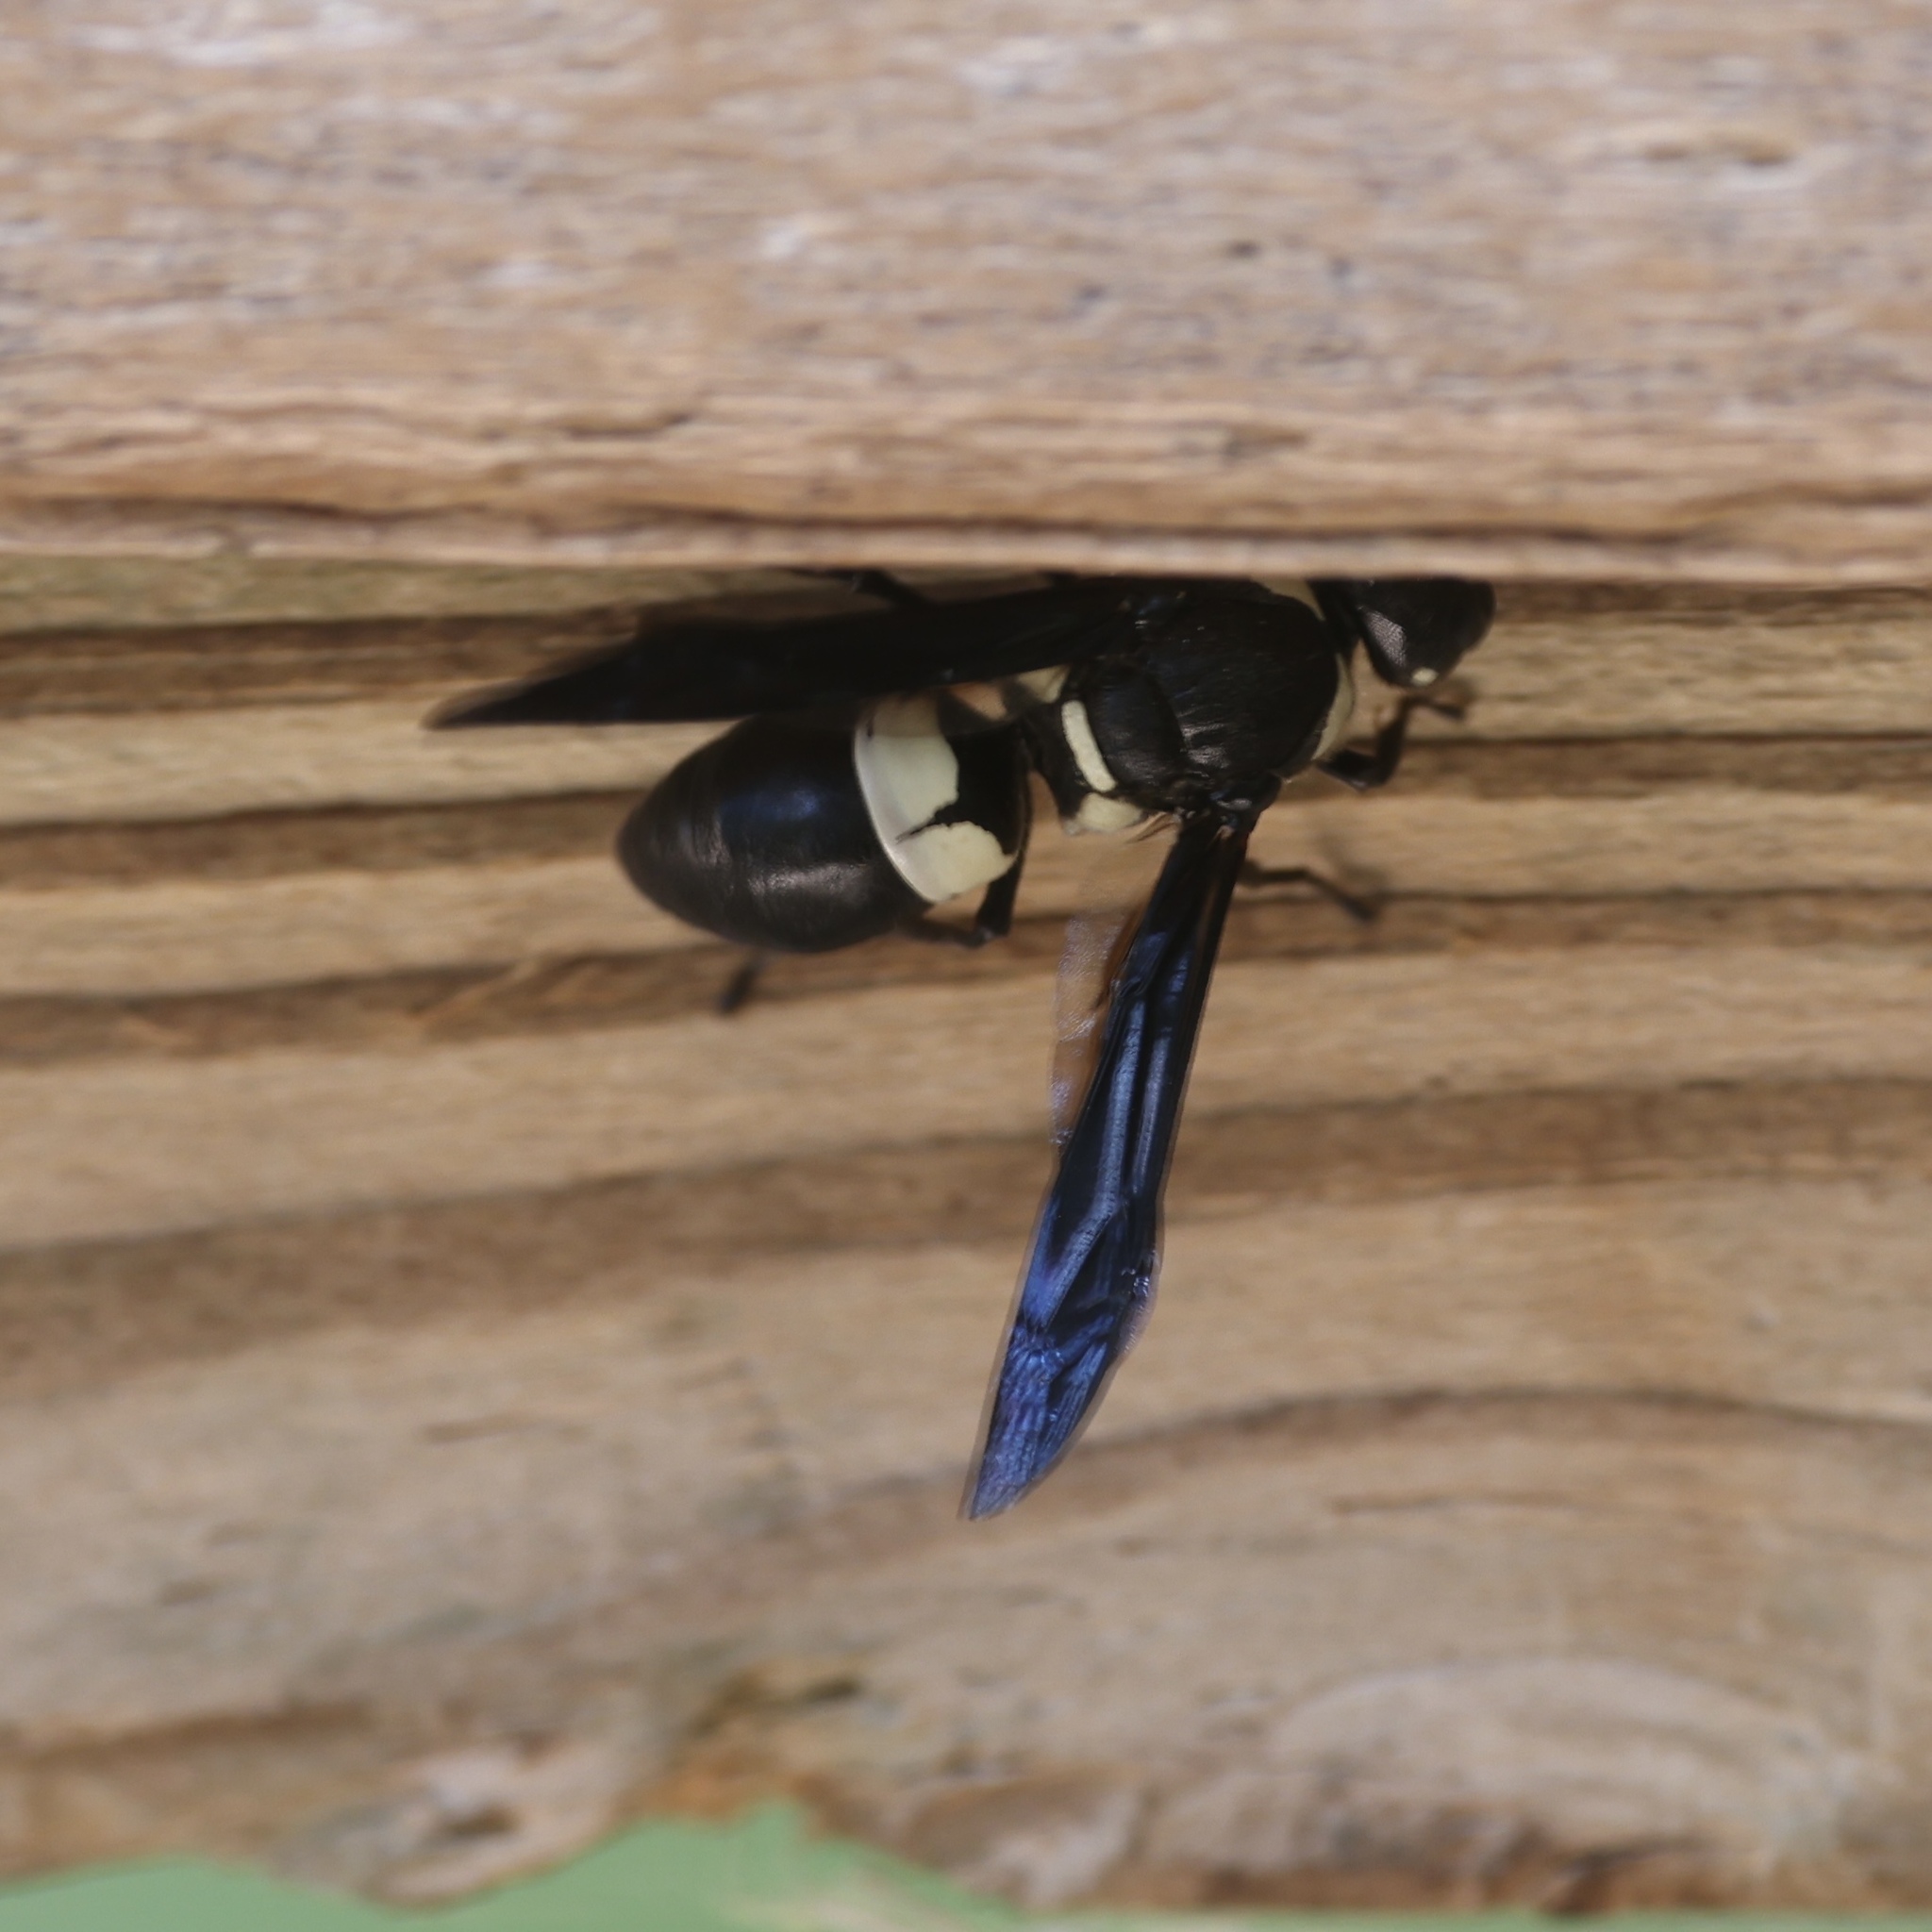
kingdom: Animalia
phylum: Arthropoda
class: Insecta
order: Hymenoptera
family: Eumenidae
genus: Euodynerus
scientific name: Euodynerus bidens
